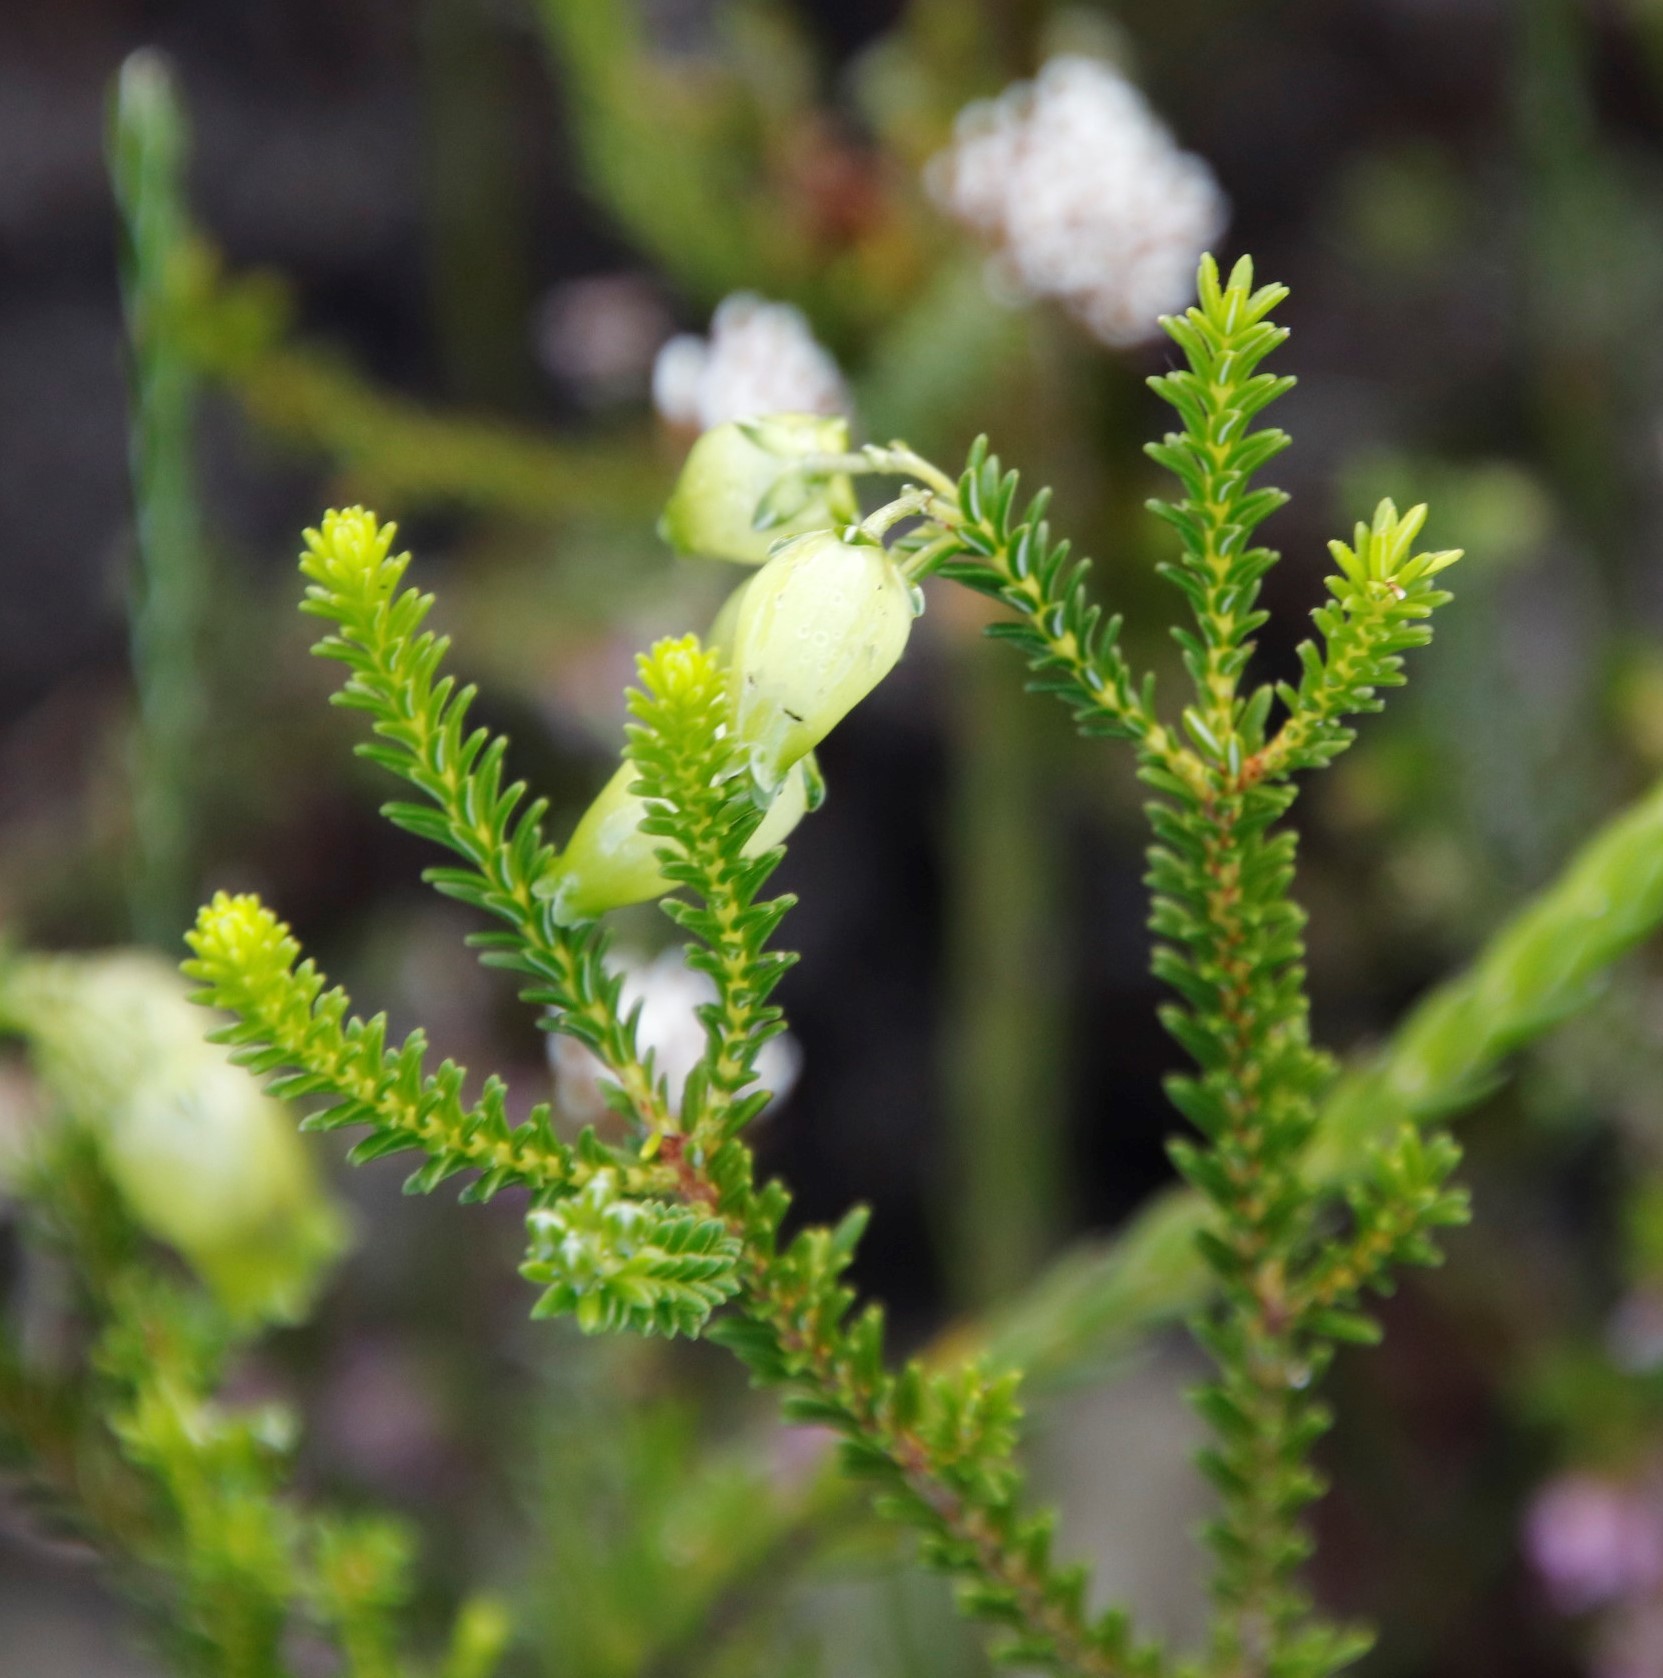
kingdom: Plantae
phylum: Tracheophyta
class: Magnoliopsida
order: Ericales
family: Ericaceae
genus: Erica
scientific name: Erica urna-viridis
